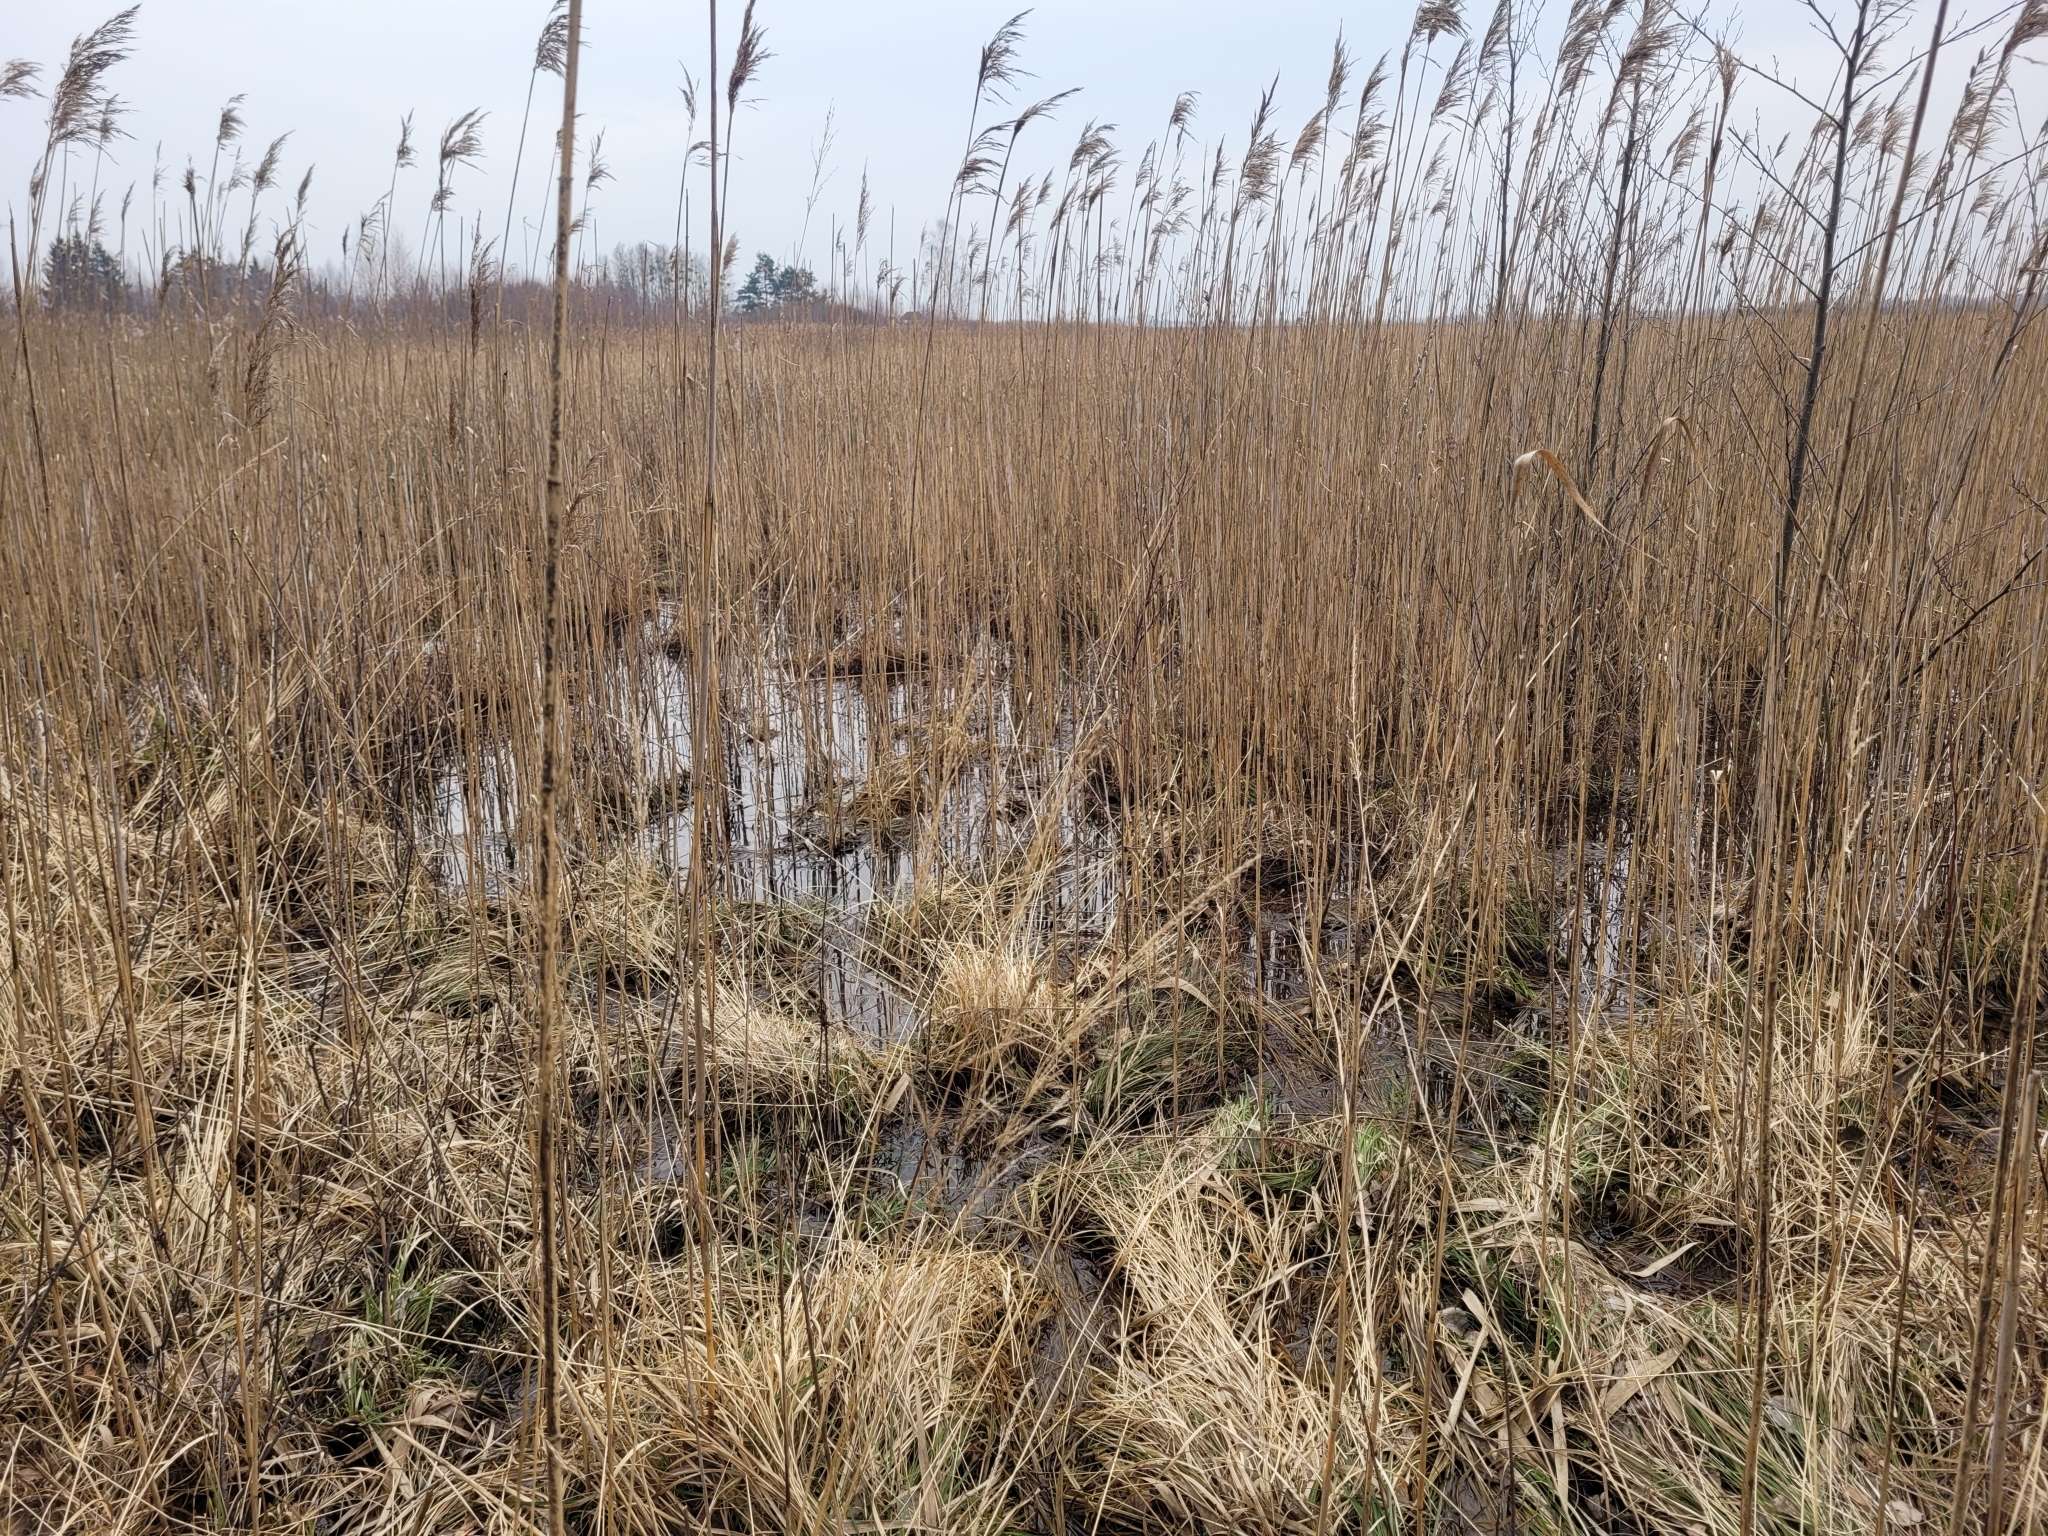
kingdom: Plantae
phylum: Tracheophyta
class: Liliopsida
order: Poales
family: Poaceae
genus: Phragmites
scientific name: Phragmites australis
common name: Common reed
